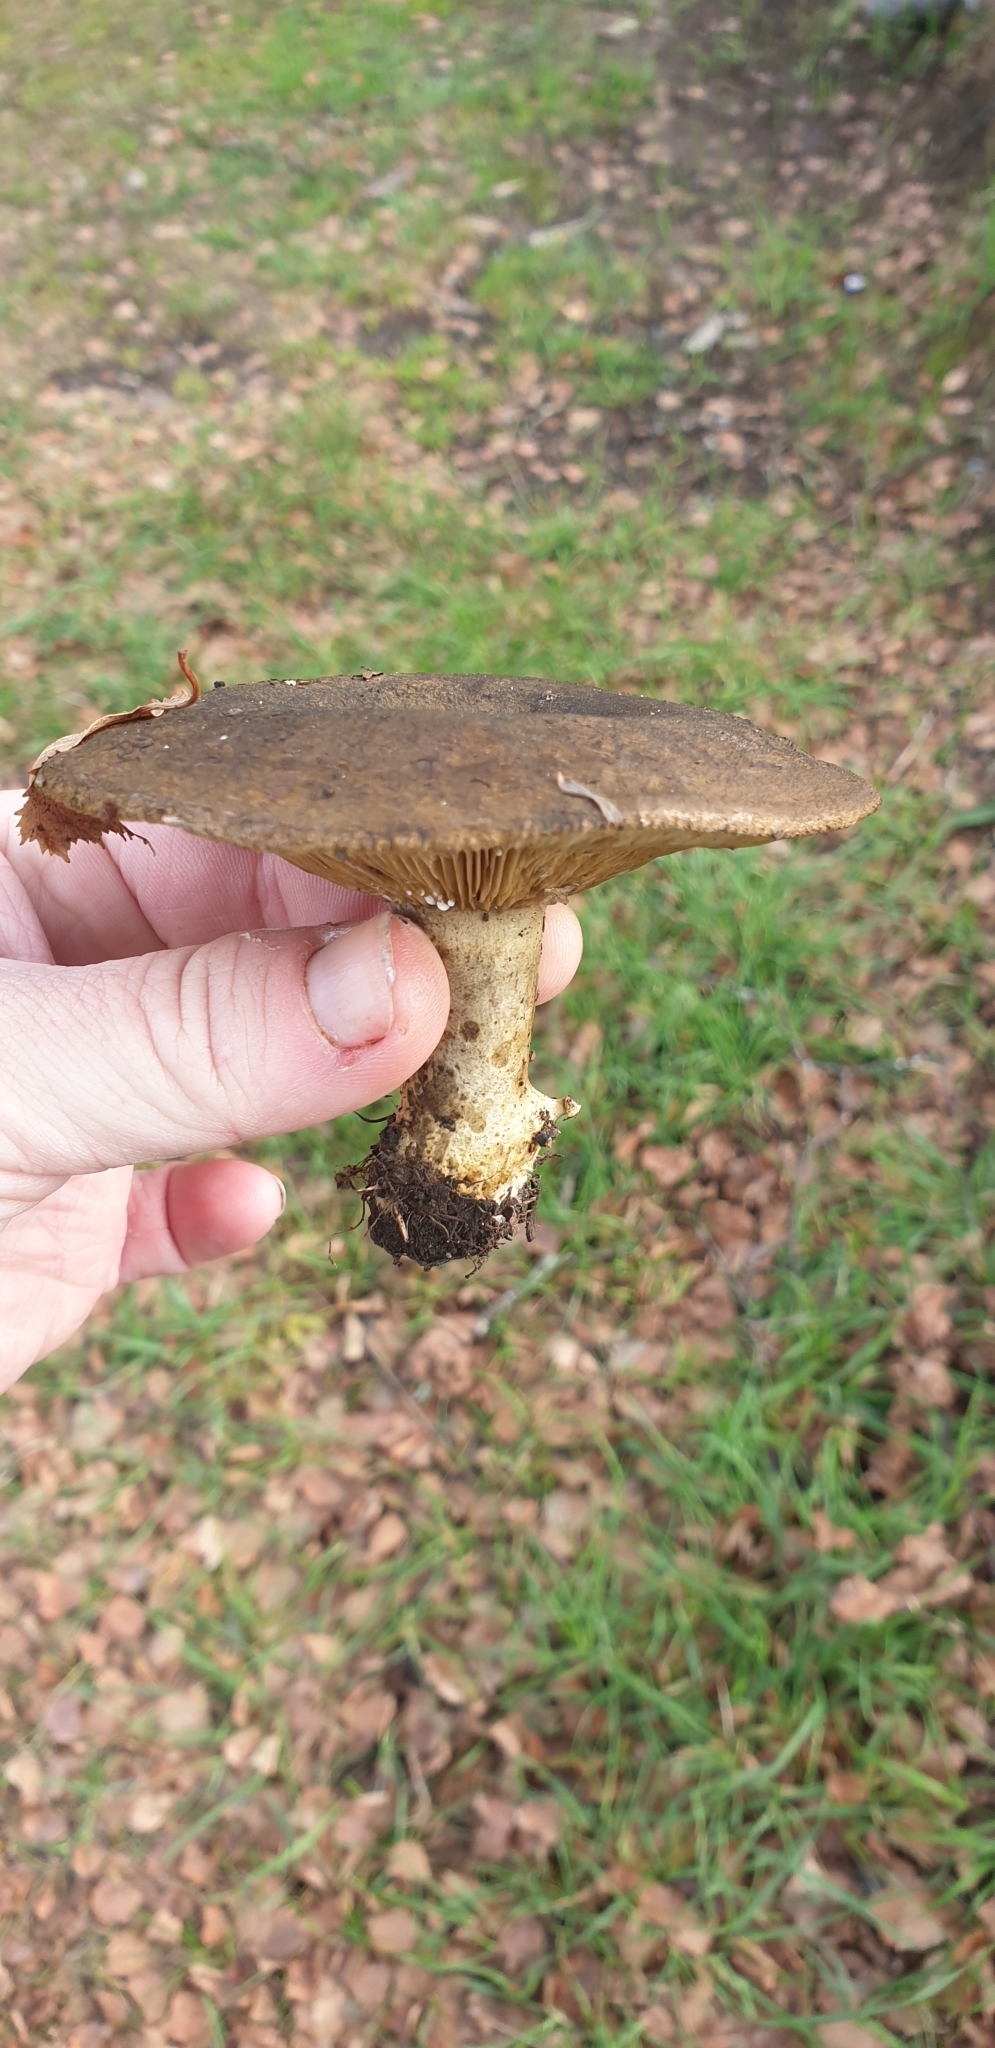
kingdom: Fungi
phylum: Basidiomycota
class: Agaricomycetes
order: Russulales
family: Russulaceae
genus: Lactarius
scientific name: Lactarius turpis
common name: Ugly milk-cap
